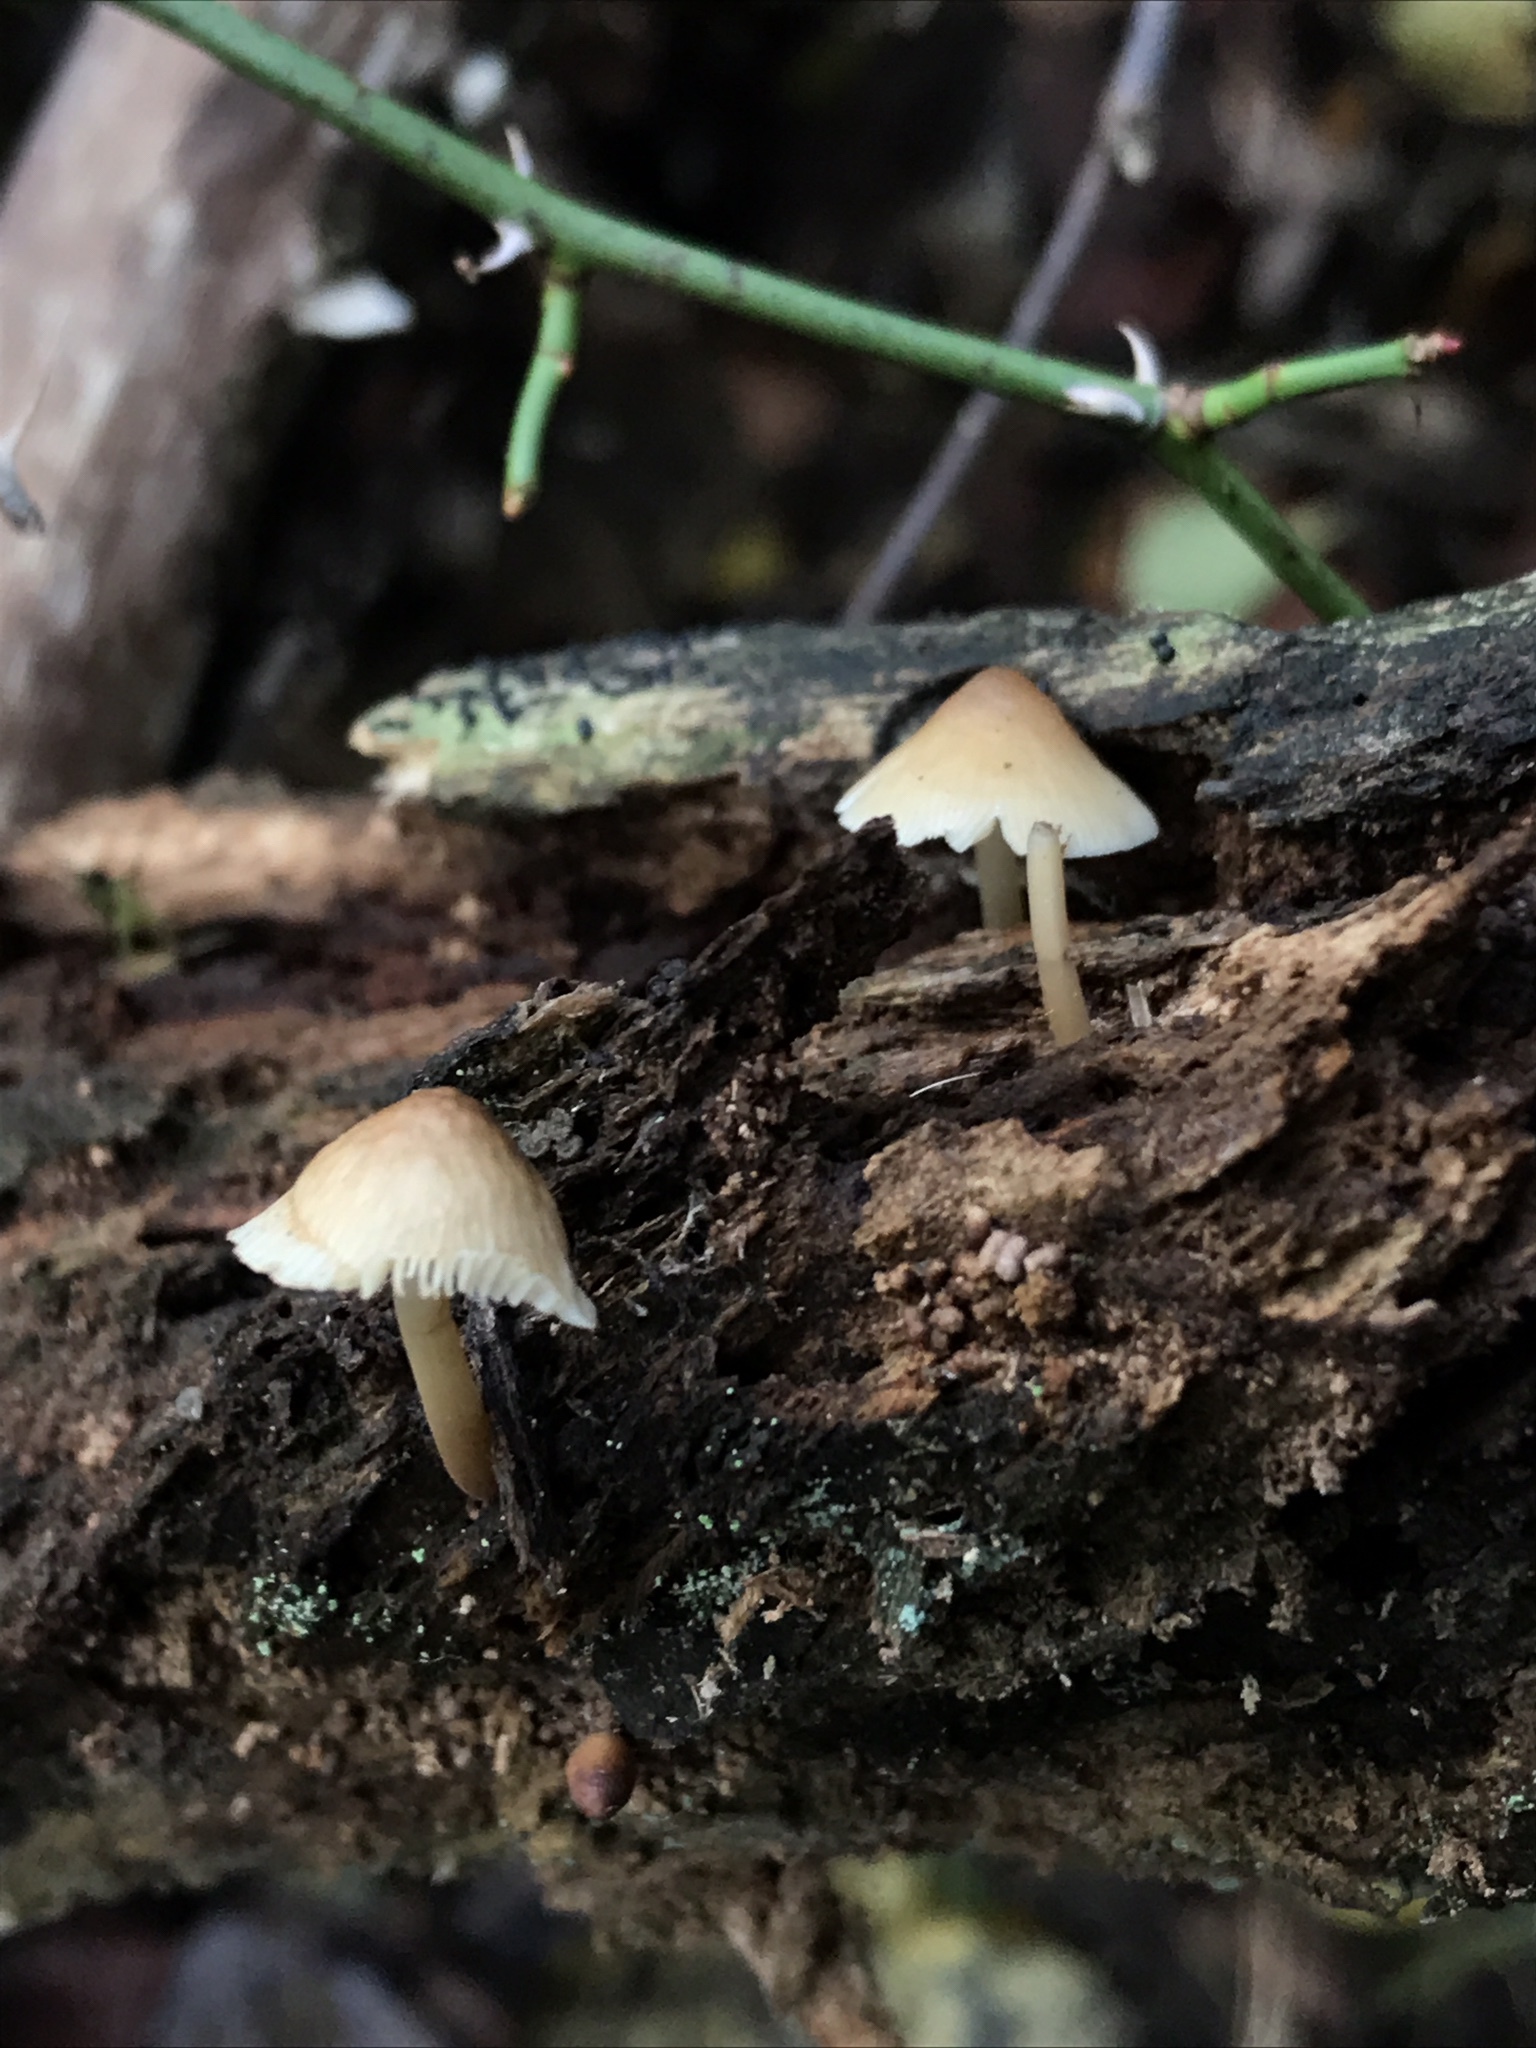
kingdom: Fungi
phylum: Basidiomycota
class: Agaricomycetes
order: Agaricales
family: Mycenaceae
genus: Mycena
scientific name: Mycena galericulata
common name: Bonnet mycena
